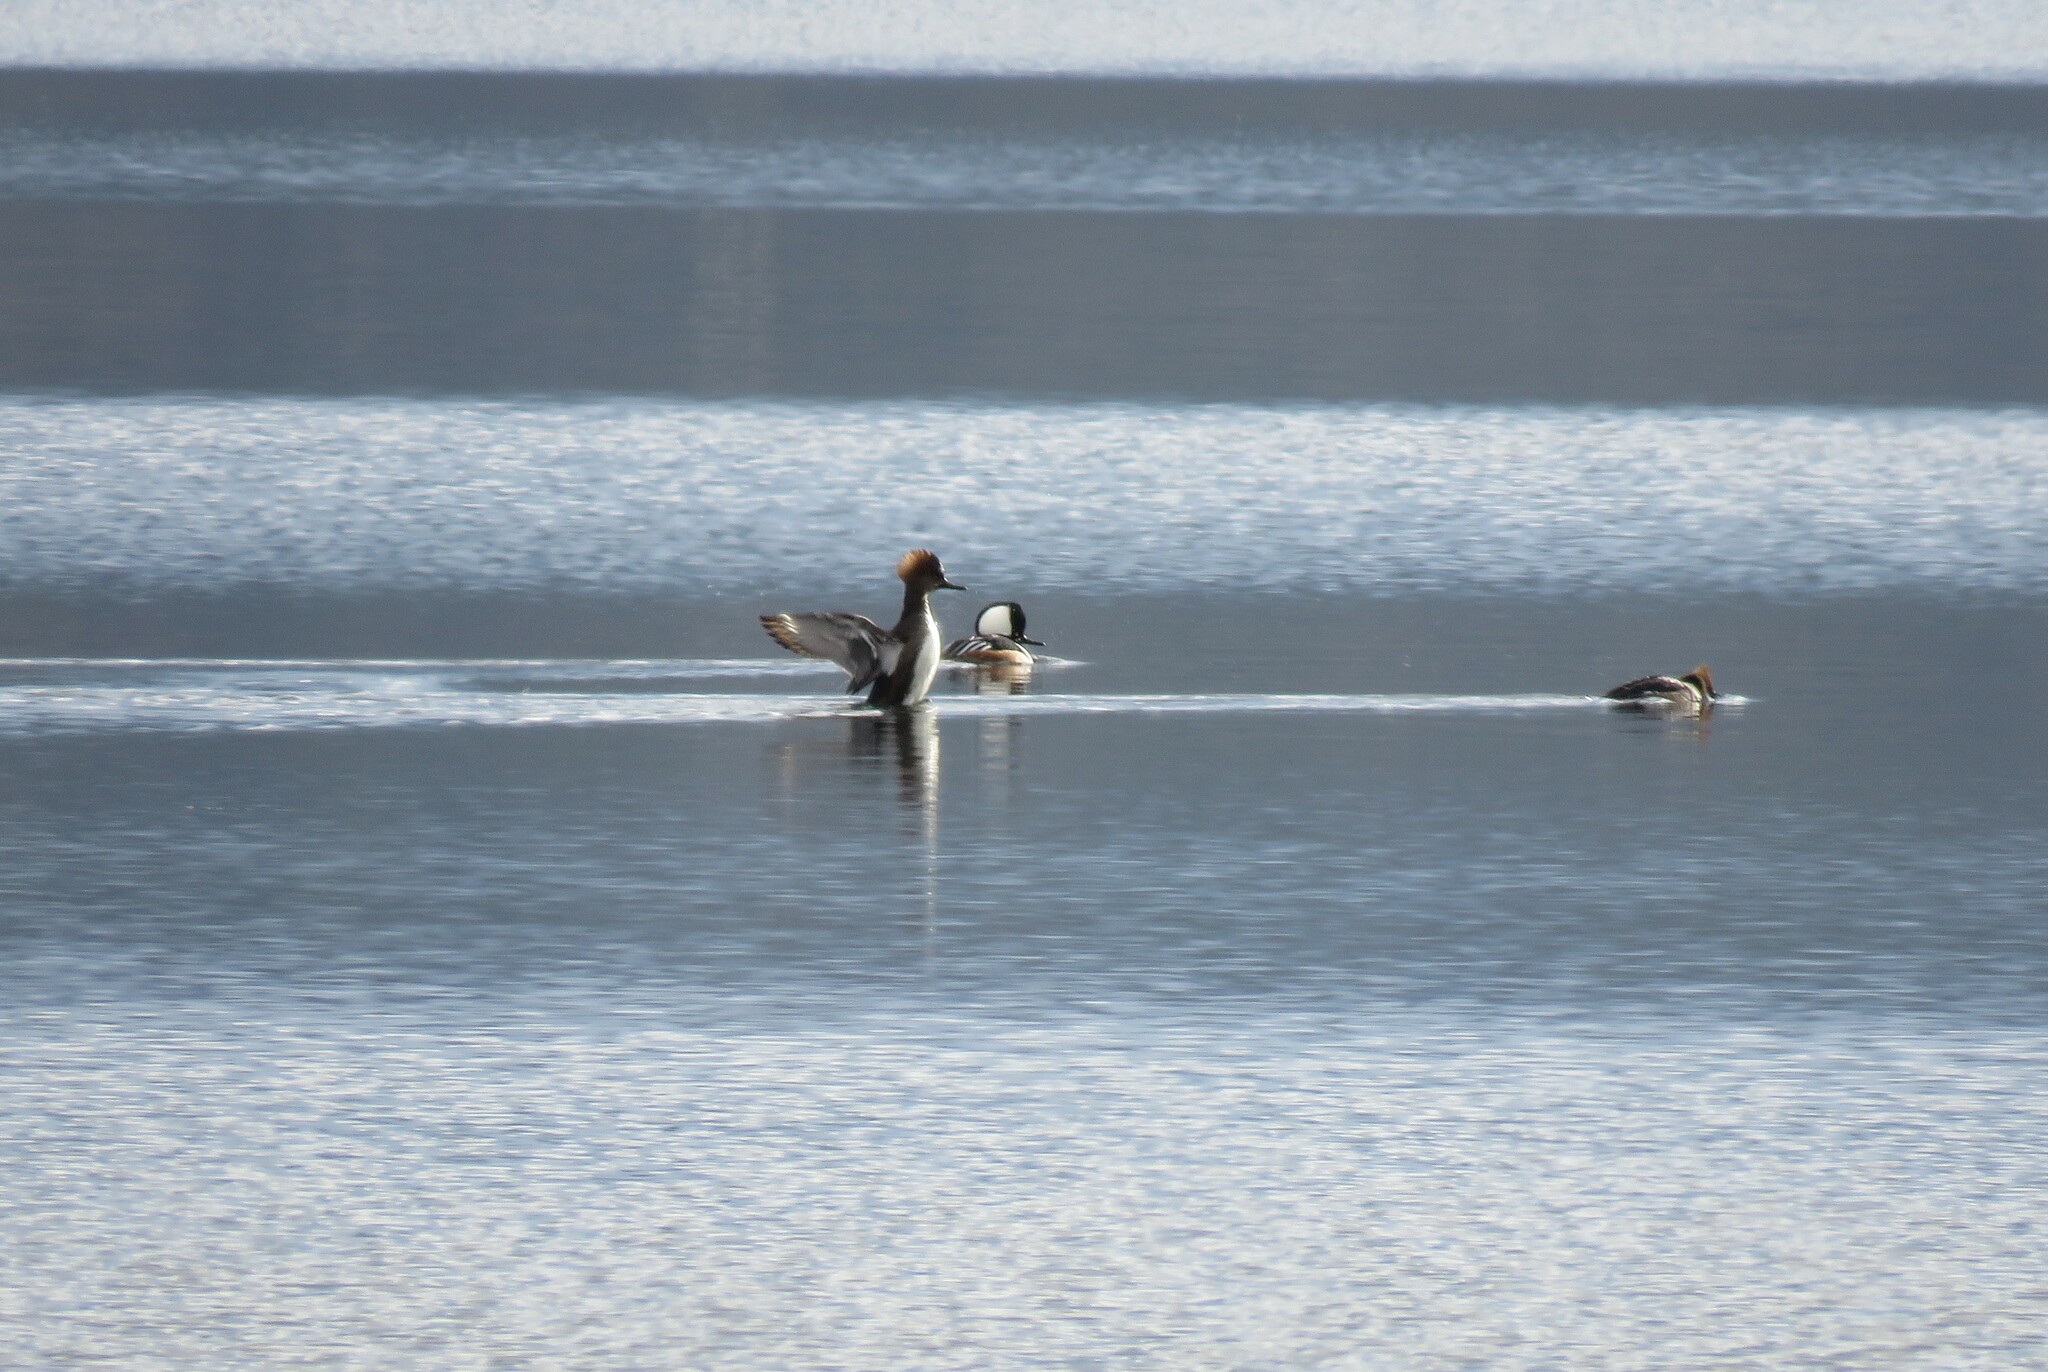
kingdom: Animalia
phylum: Chordata
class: Aves
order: Anseriformes
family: Anatidae
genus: Lophodytes
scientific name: Lophodytes cucullatus
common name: Hooded merganser
